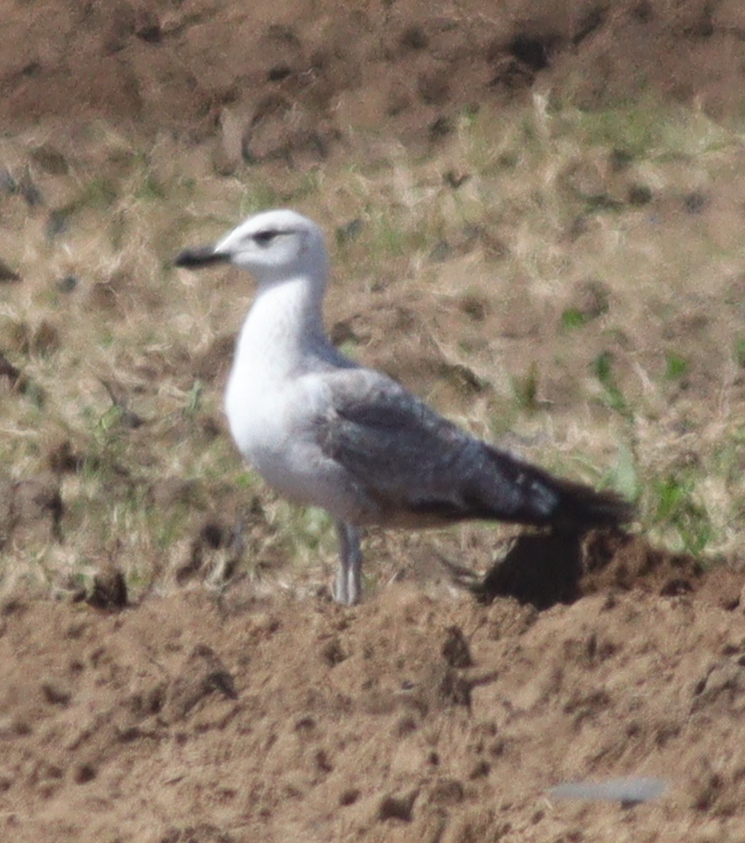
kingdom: Animalia
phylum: Chordata
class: Aves
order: Charadriiformes
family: Laridae
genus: Larus
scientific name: Larus michahellis
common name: Yellow-legged gull
